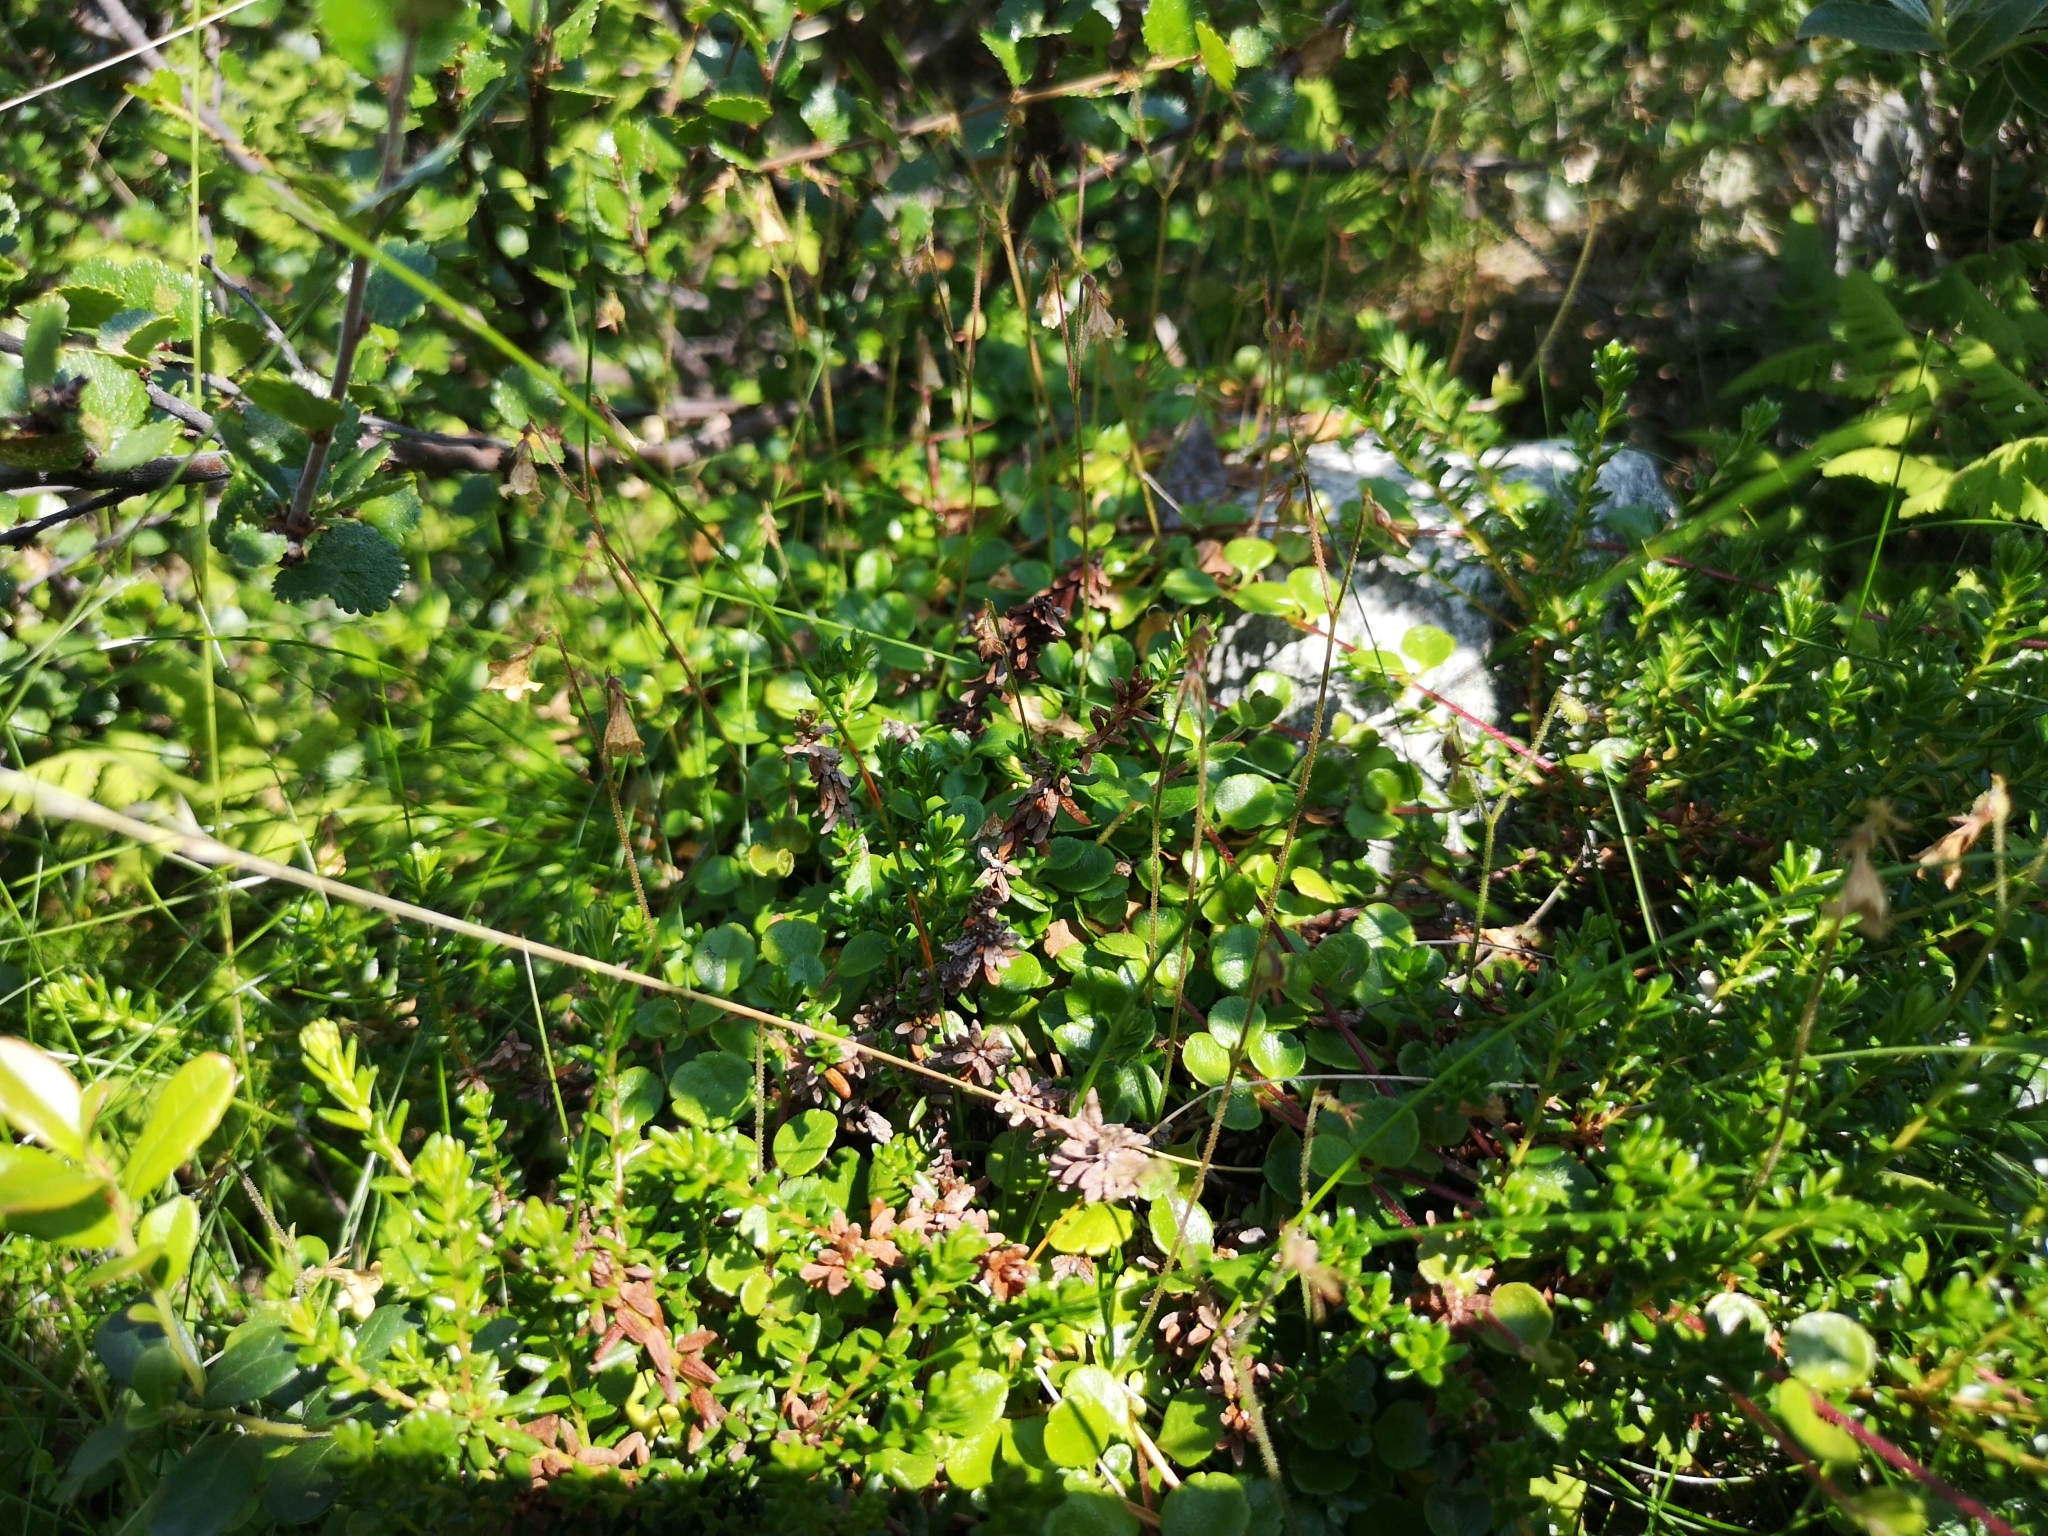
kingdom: Plantae
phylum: Tracheophyta
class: Magnoliopsida
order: Dipsacales
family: Caprifoliaceae
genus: Linnaea
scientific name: Linnaea borealis
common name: Twinflower
